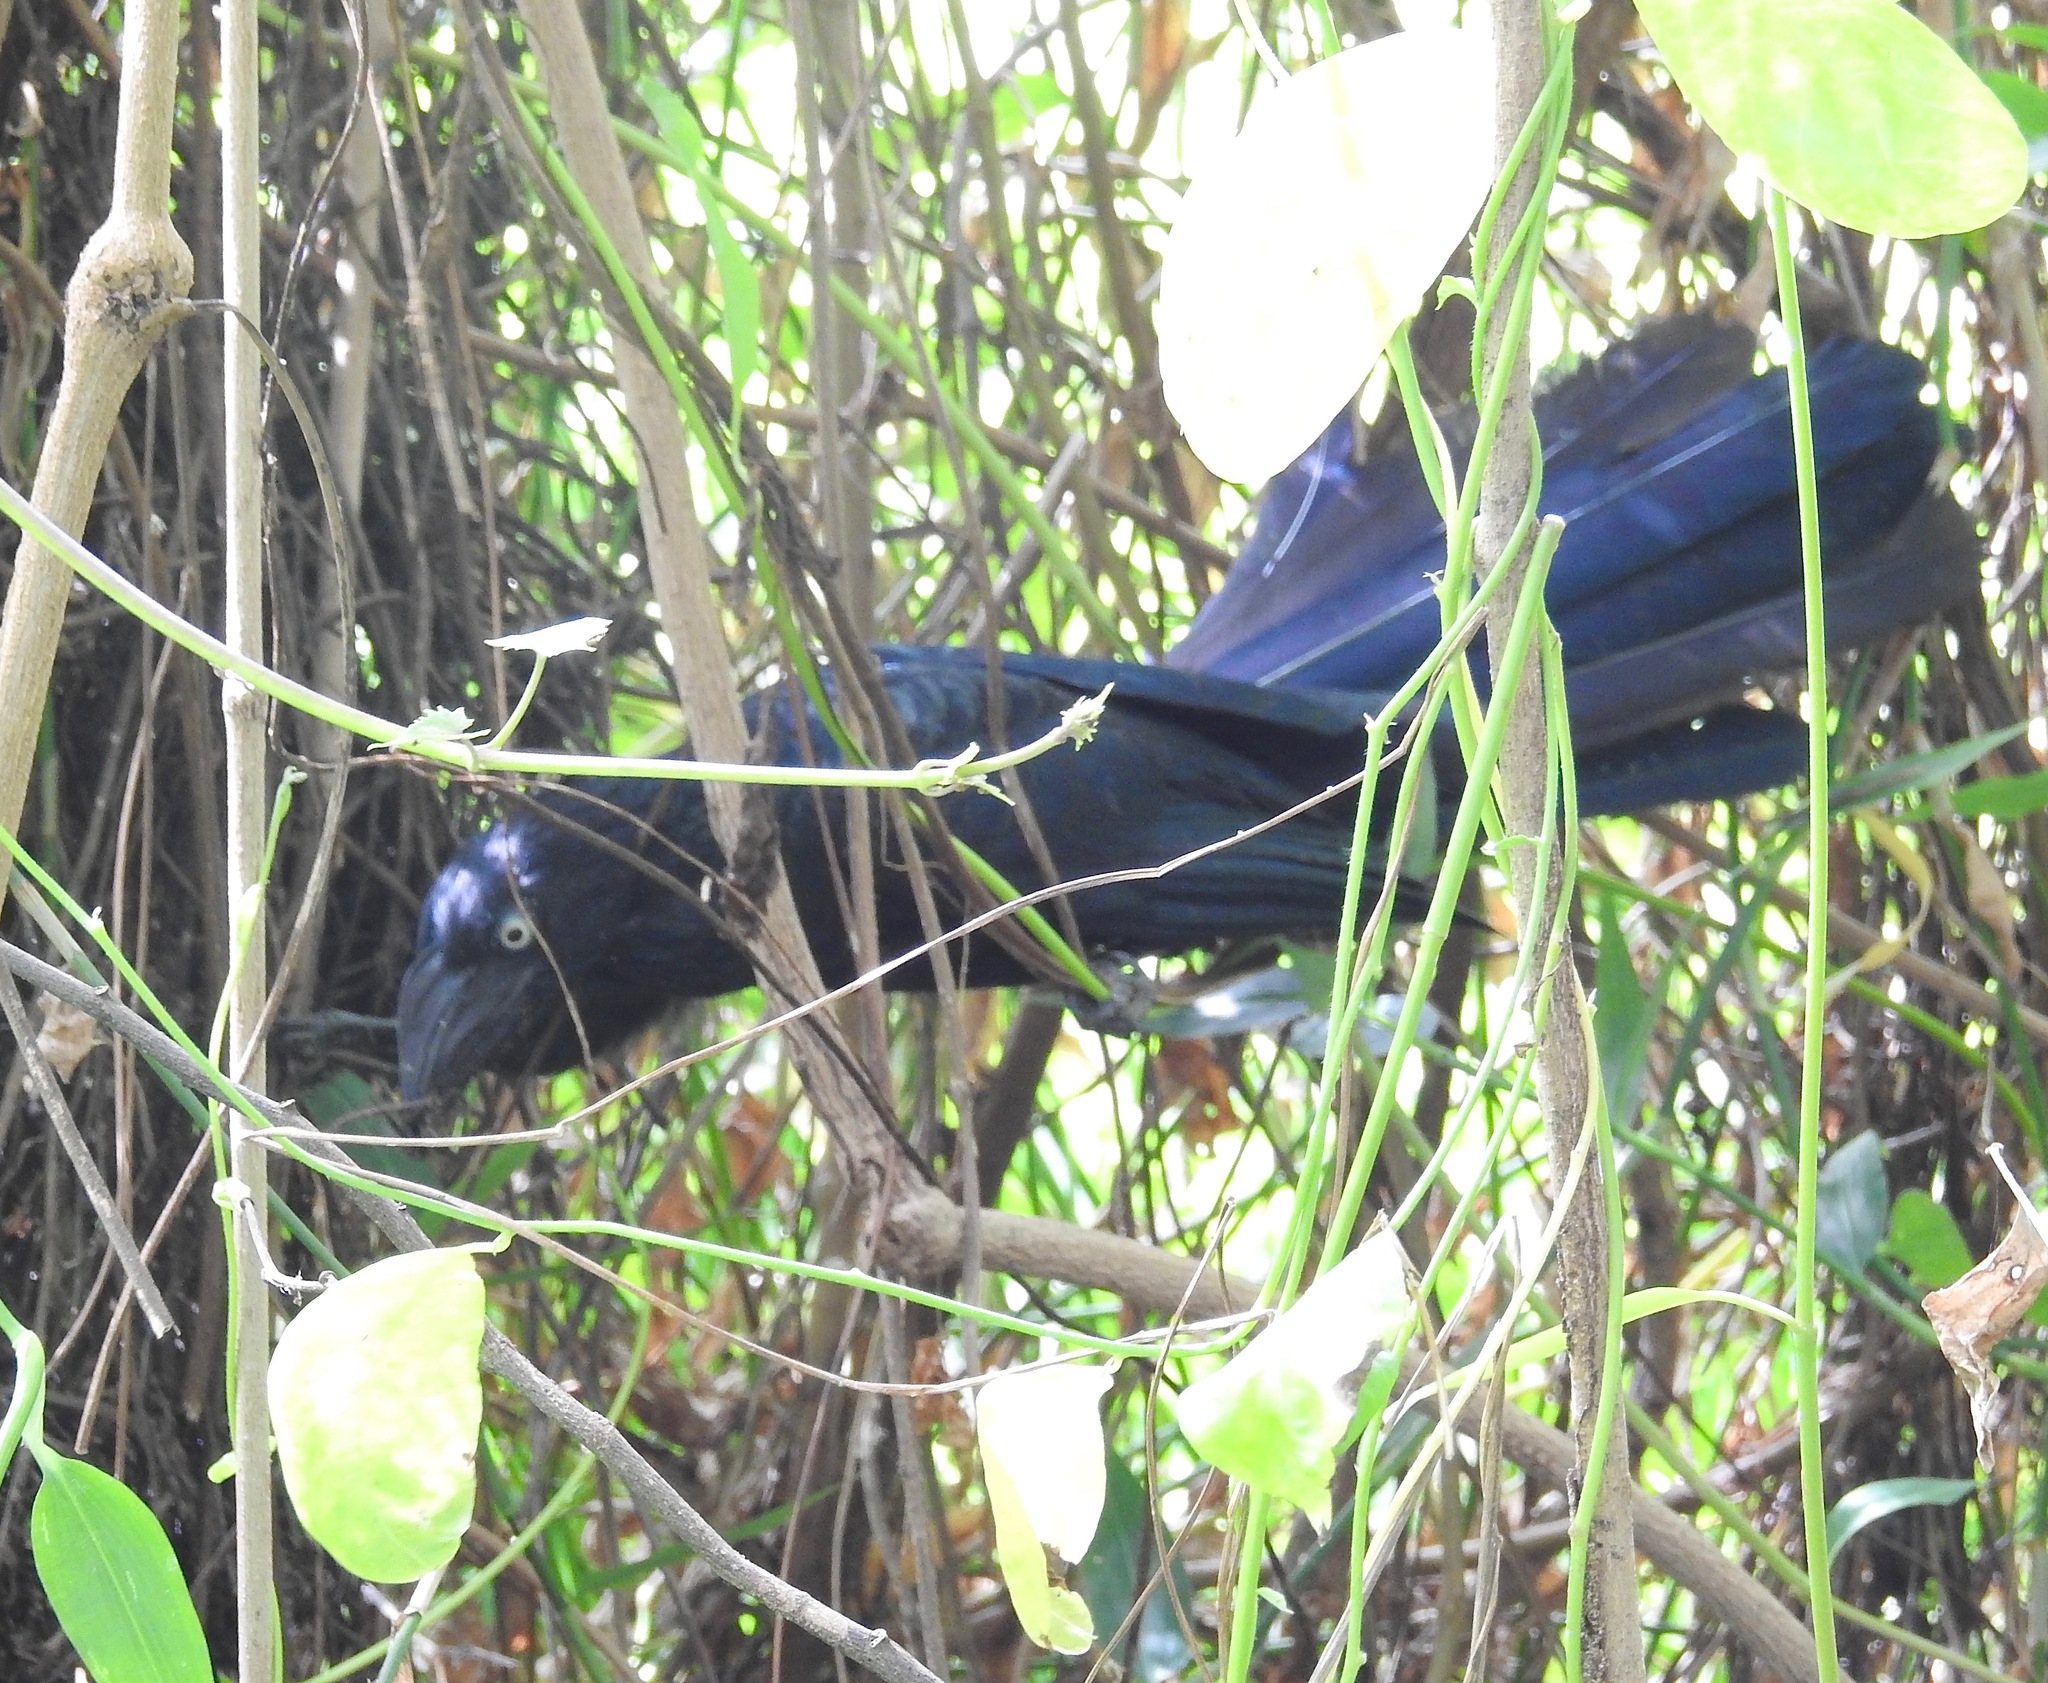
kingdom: Animalia
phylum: Chordata
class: Aves
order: Cuculiformes
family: Cuculidae
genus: Crotophaga
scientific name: Crotophaga major
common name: Greater ani
